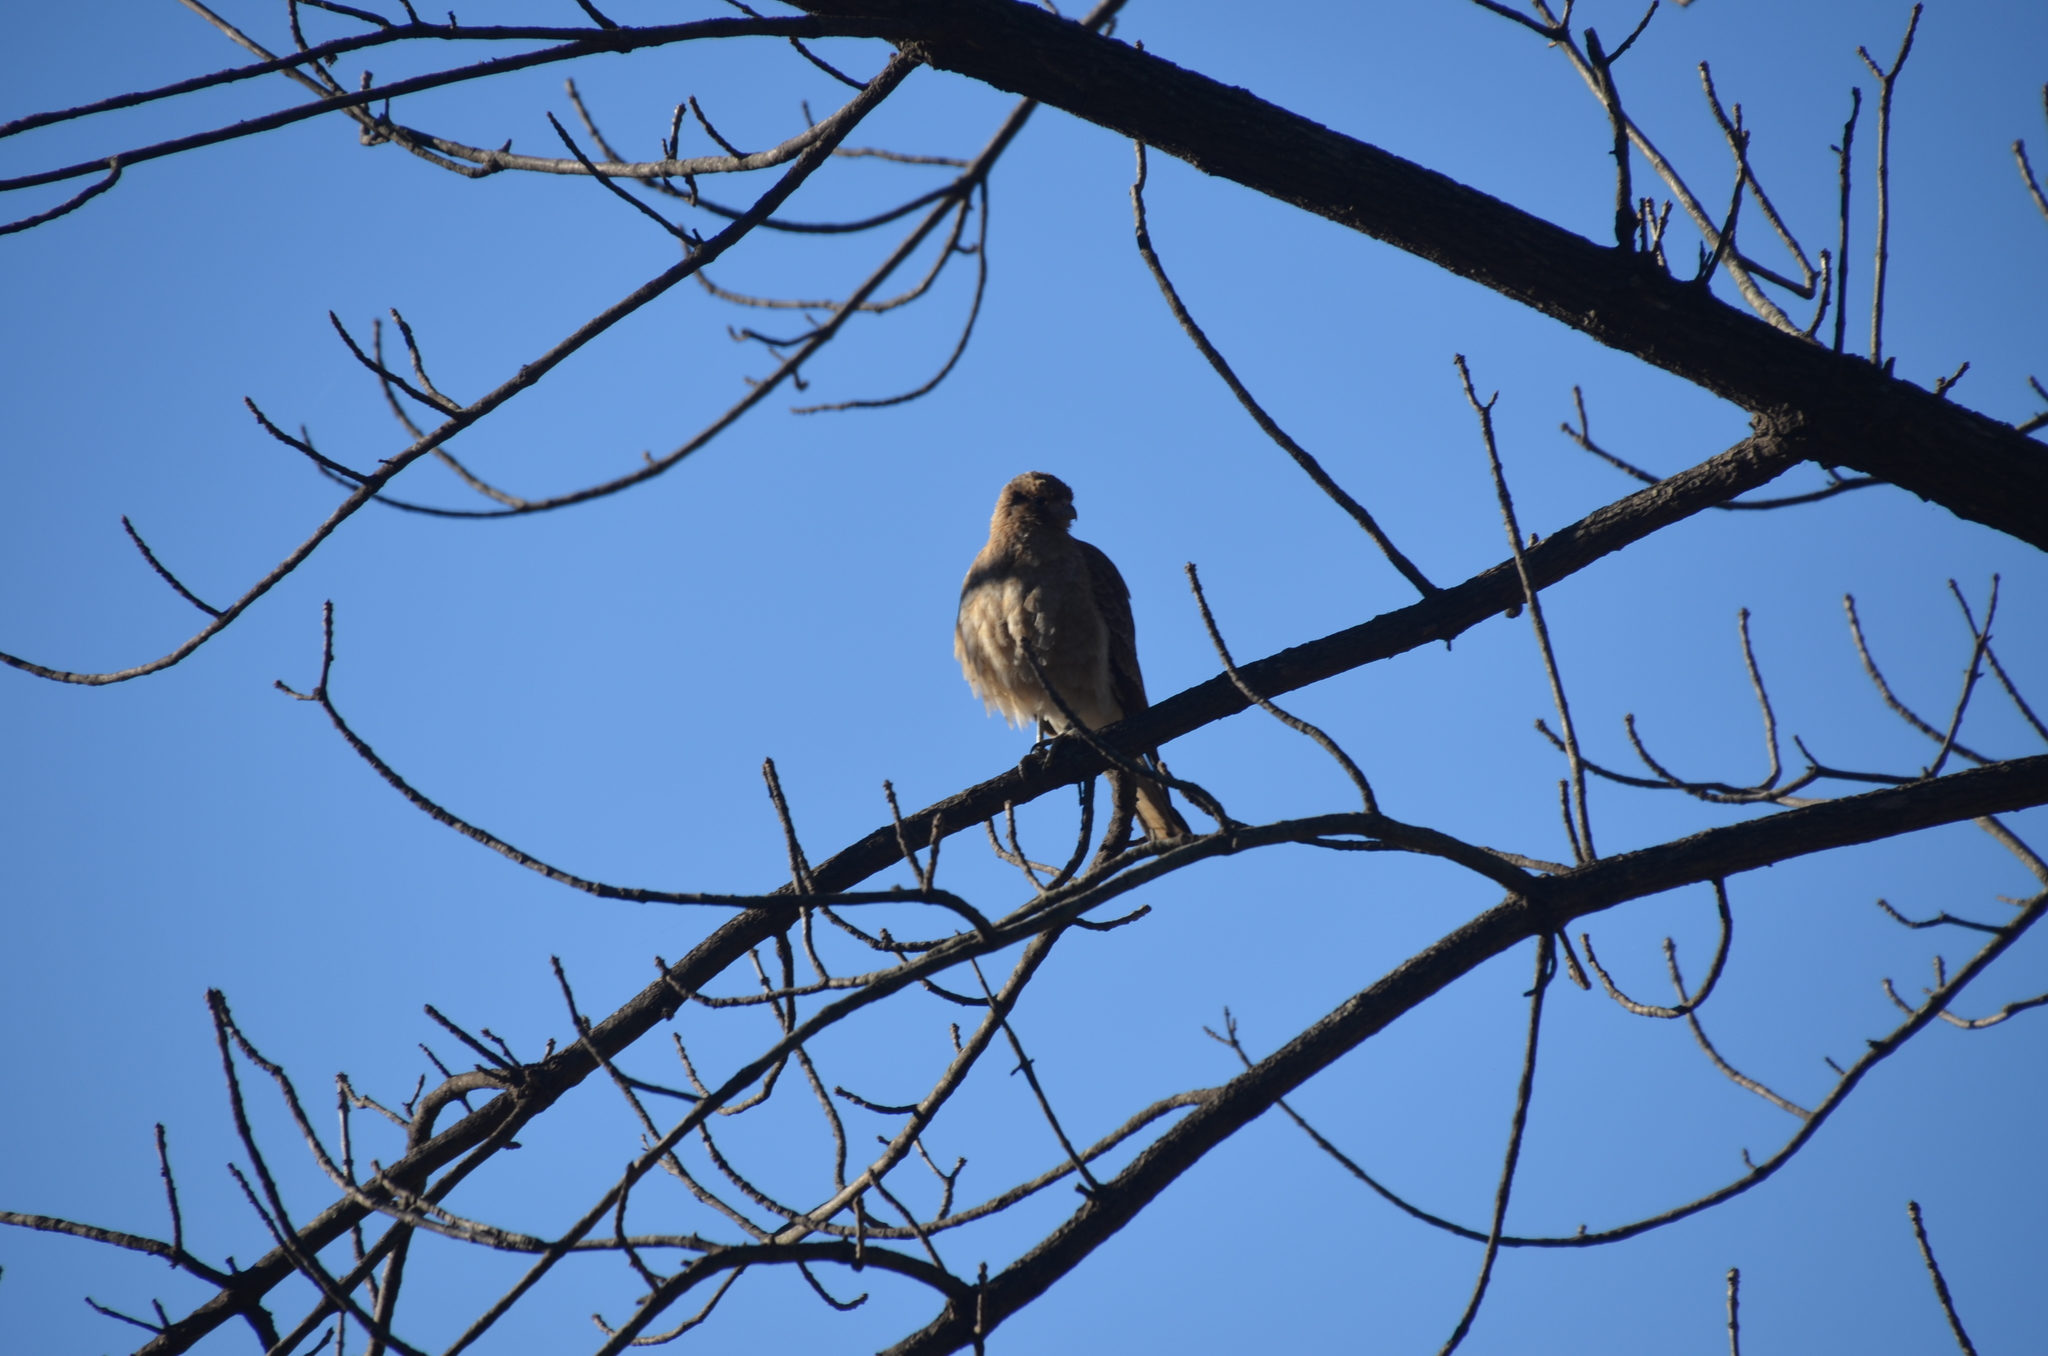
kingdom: Animalia
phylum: Chordata
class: Aves
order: Falconiformes
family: Falconidae
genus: Daptrius
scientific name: Daptrius
